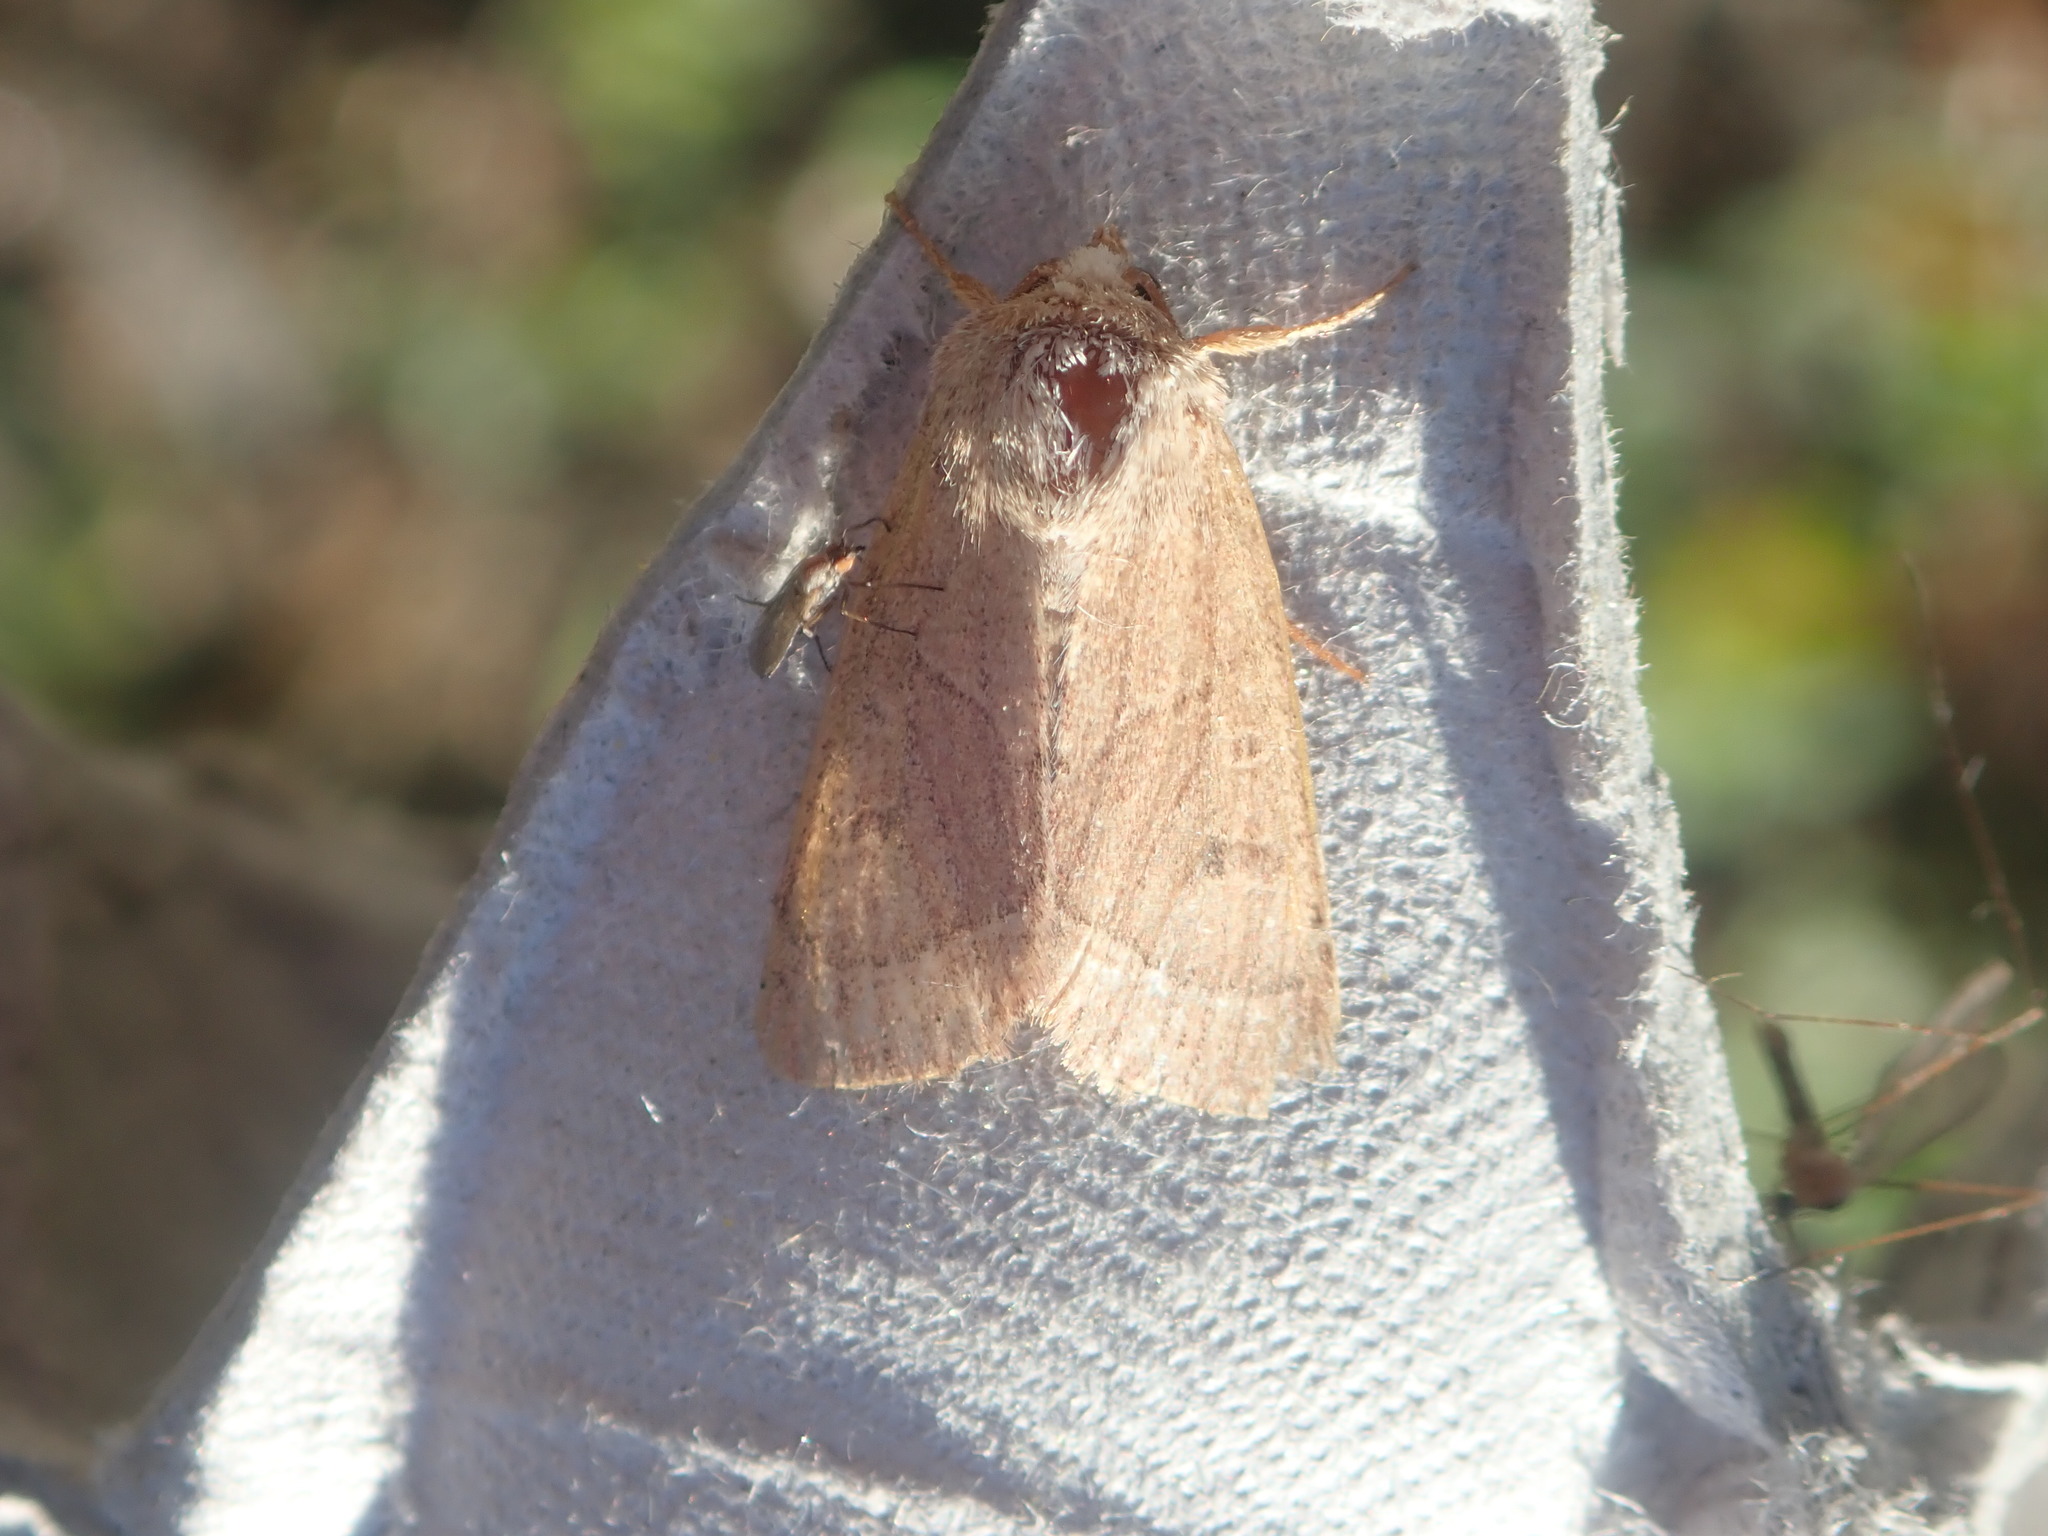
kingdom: Animalia
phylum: Arthropoda
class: Insecta
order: Lepidoptera
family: Noctuidae
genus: Ulolonche
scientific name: Ulolonche culea
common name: Sheathed quaker
